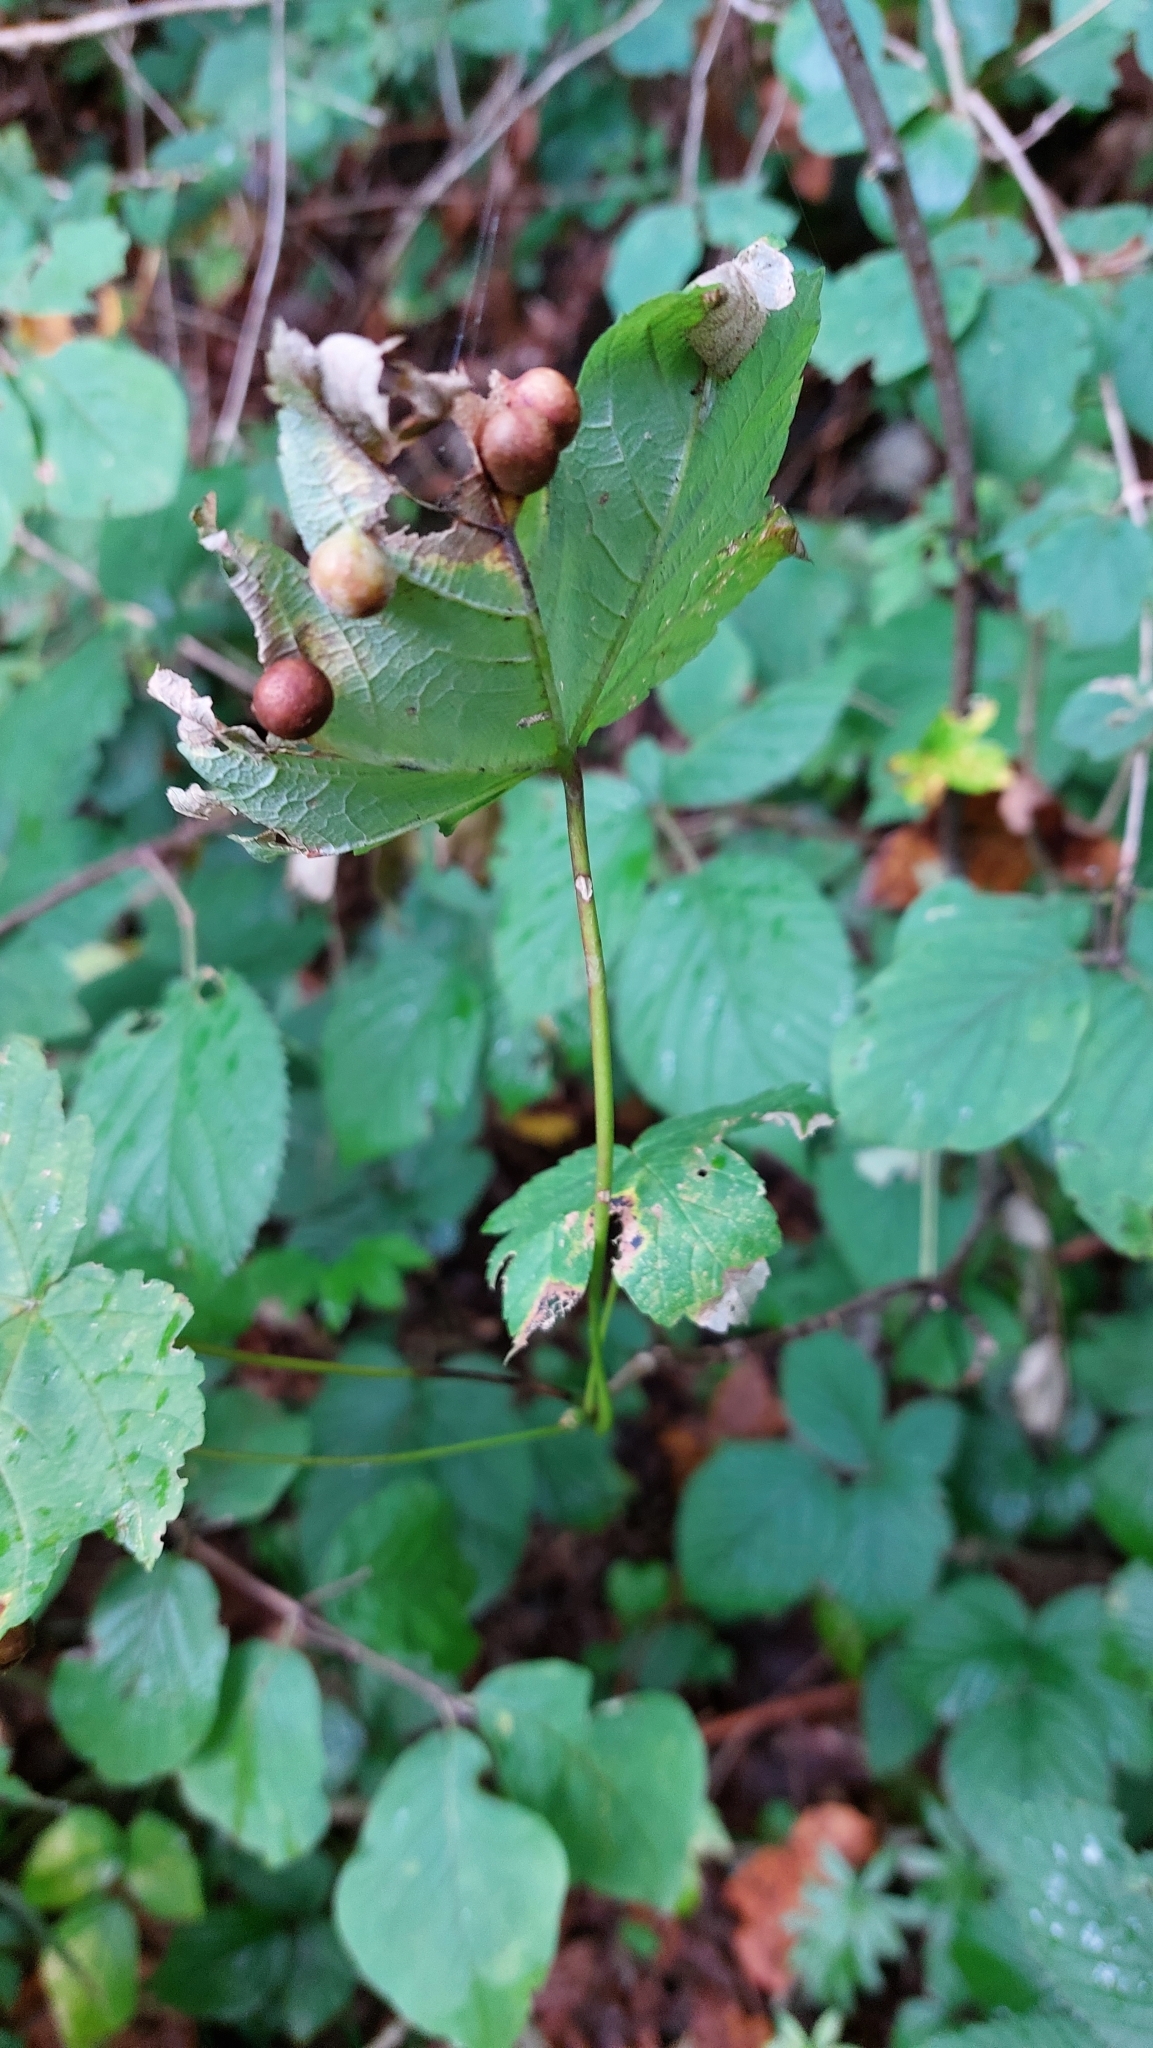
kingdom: Animalia
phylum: Arthropoda
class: Insecta
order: Hymenoptera
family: Cynipidae
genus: Pediaspis
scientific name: Pediaspis aceris
